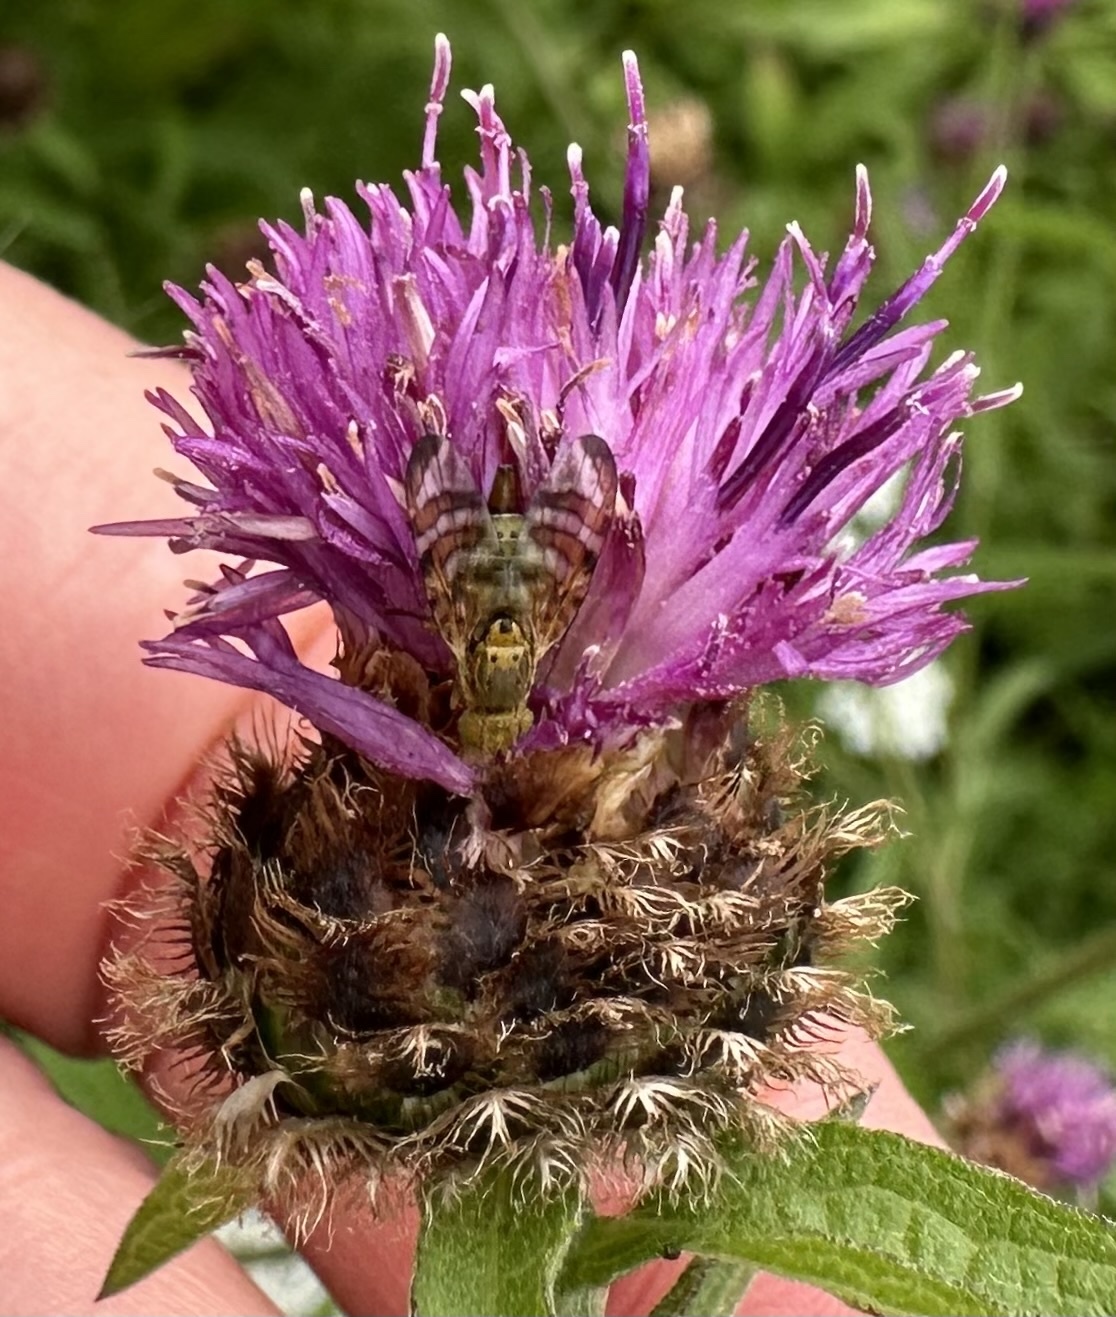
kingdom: Animalia
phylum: Arthropoda
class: Insecta
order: Diptera
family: Tephritidae
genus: Chaetostomella
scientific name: Chaetostomella cylindrica
